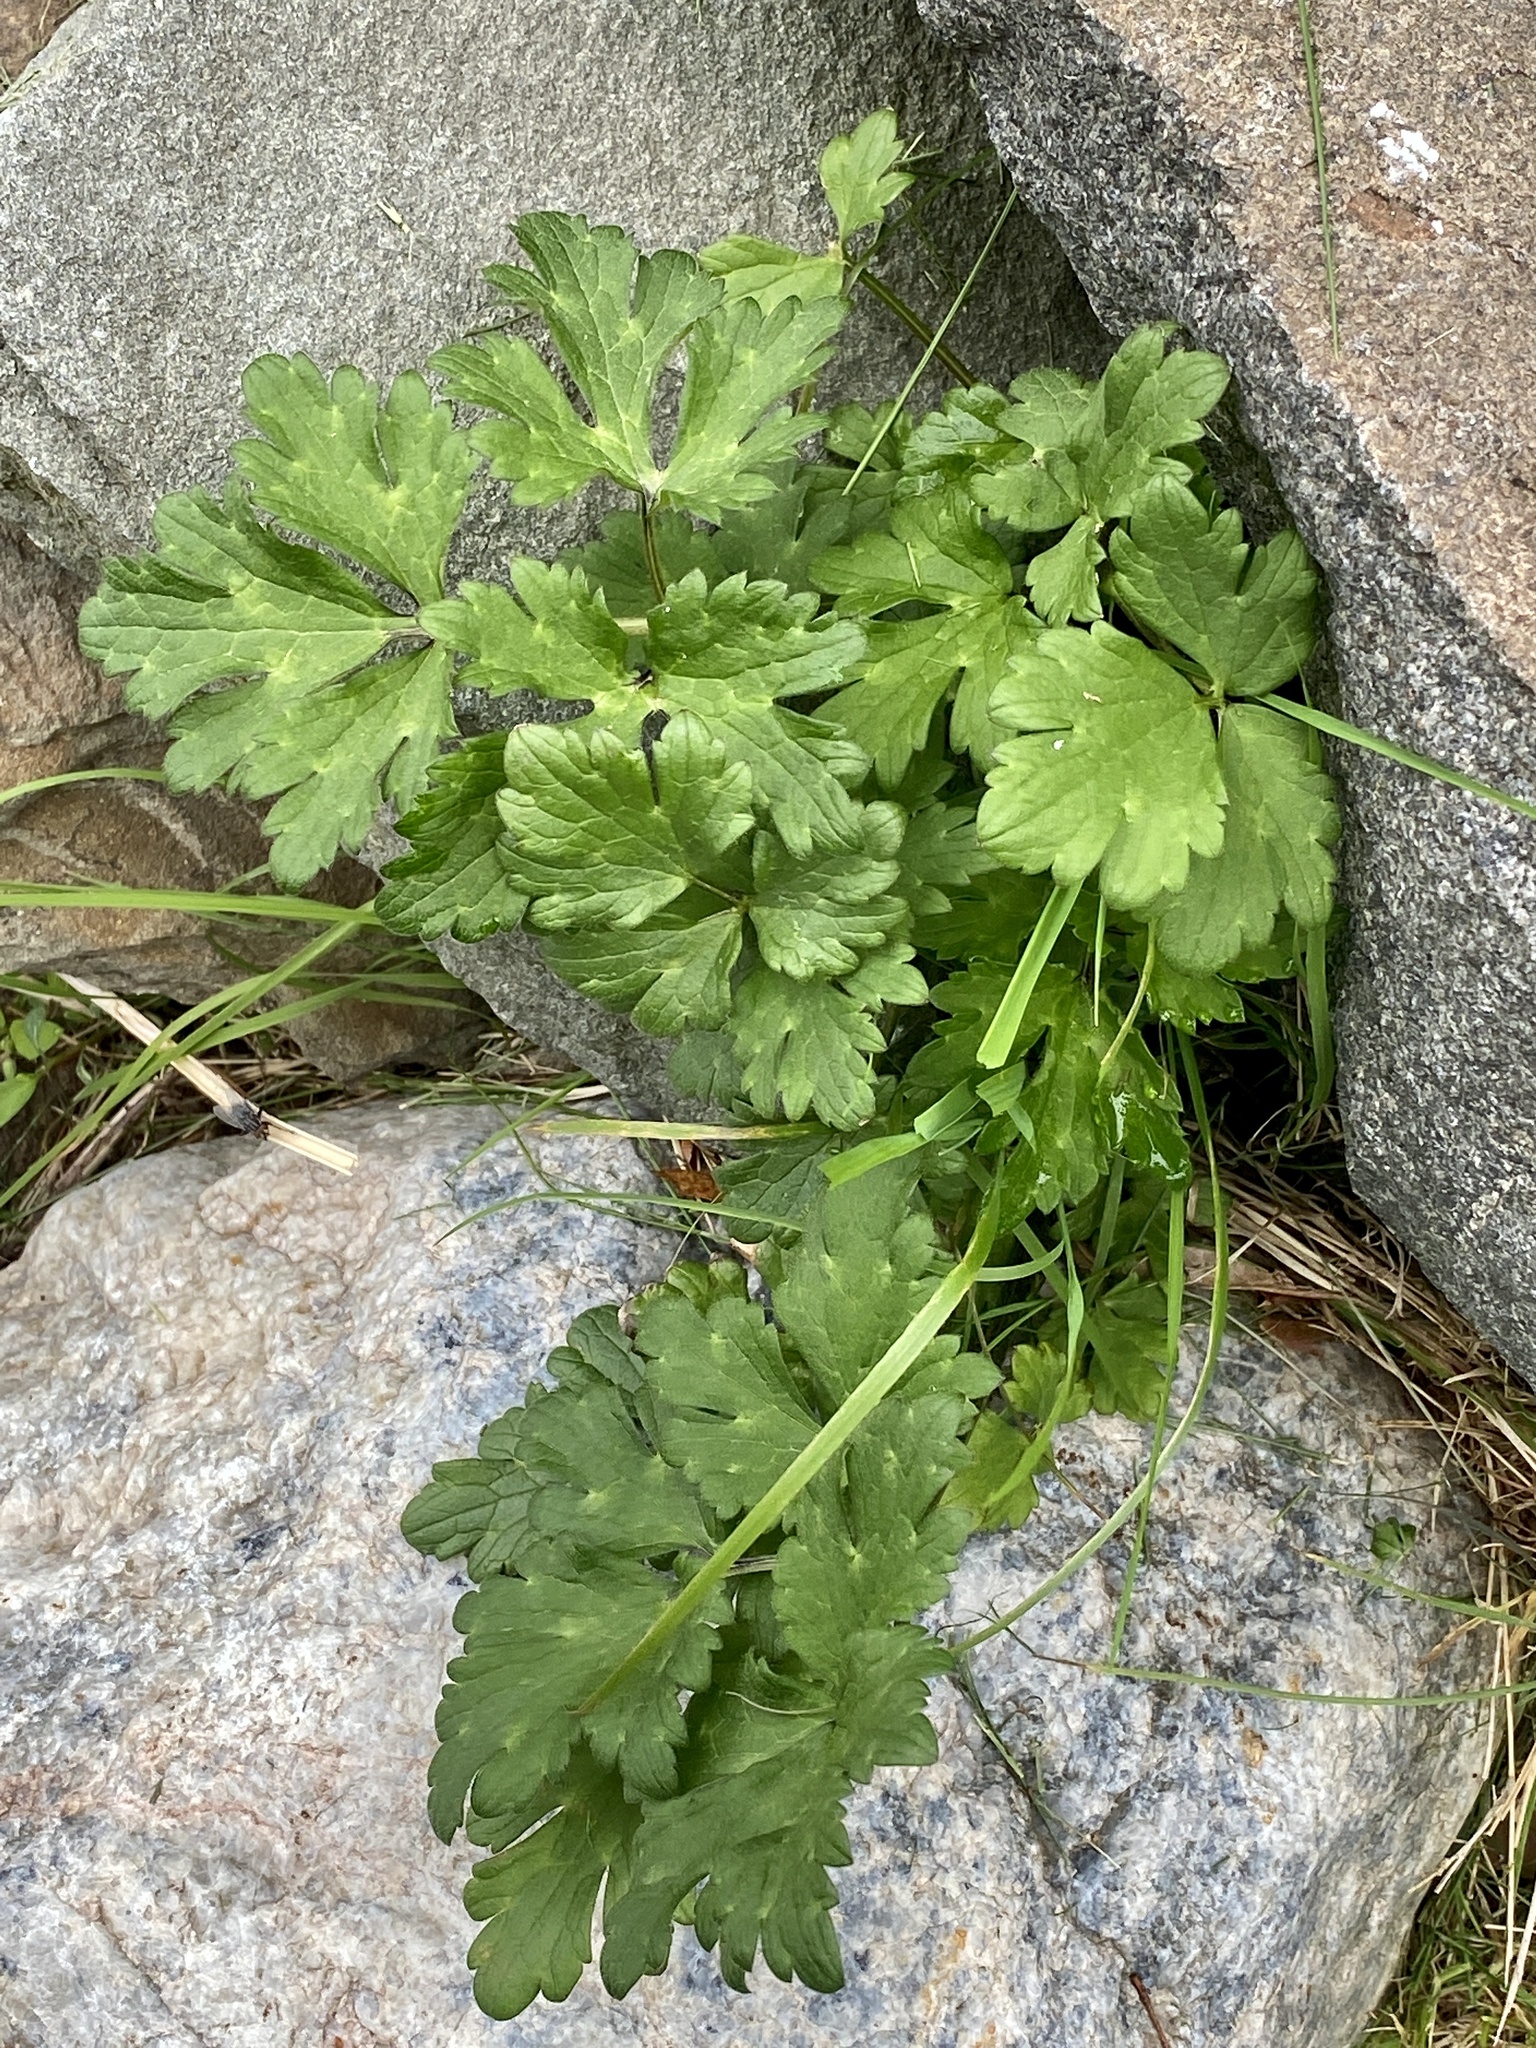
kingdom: Plantae
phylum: Tracheophyta
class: Magnoliopsida
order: Ranunculales
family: Ranunculaceae
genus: Ranunculus
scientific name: Ranunculus repens
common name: Creeping buttercup
